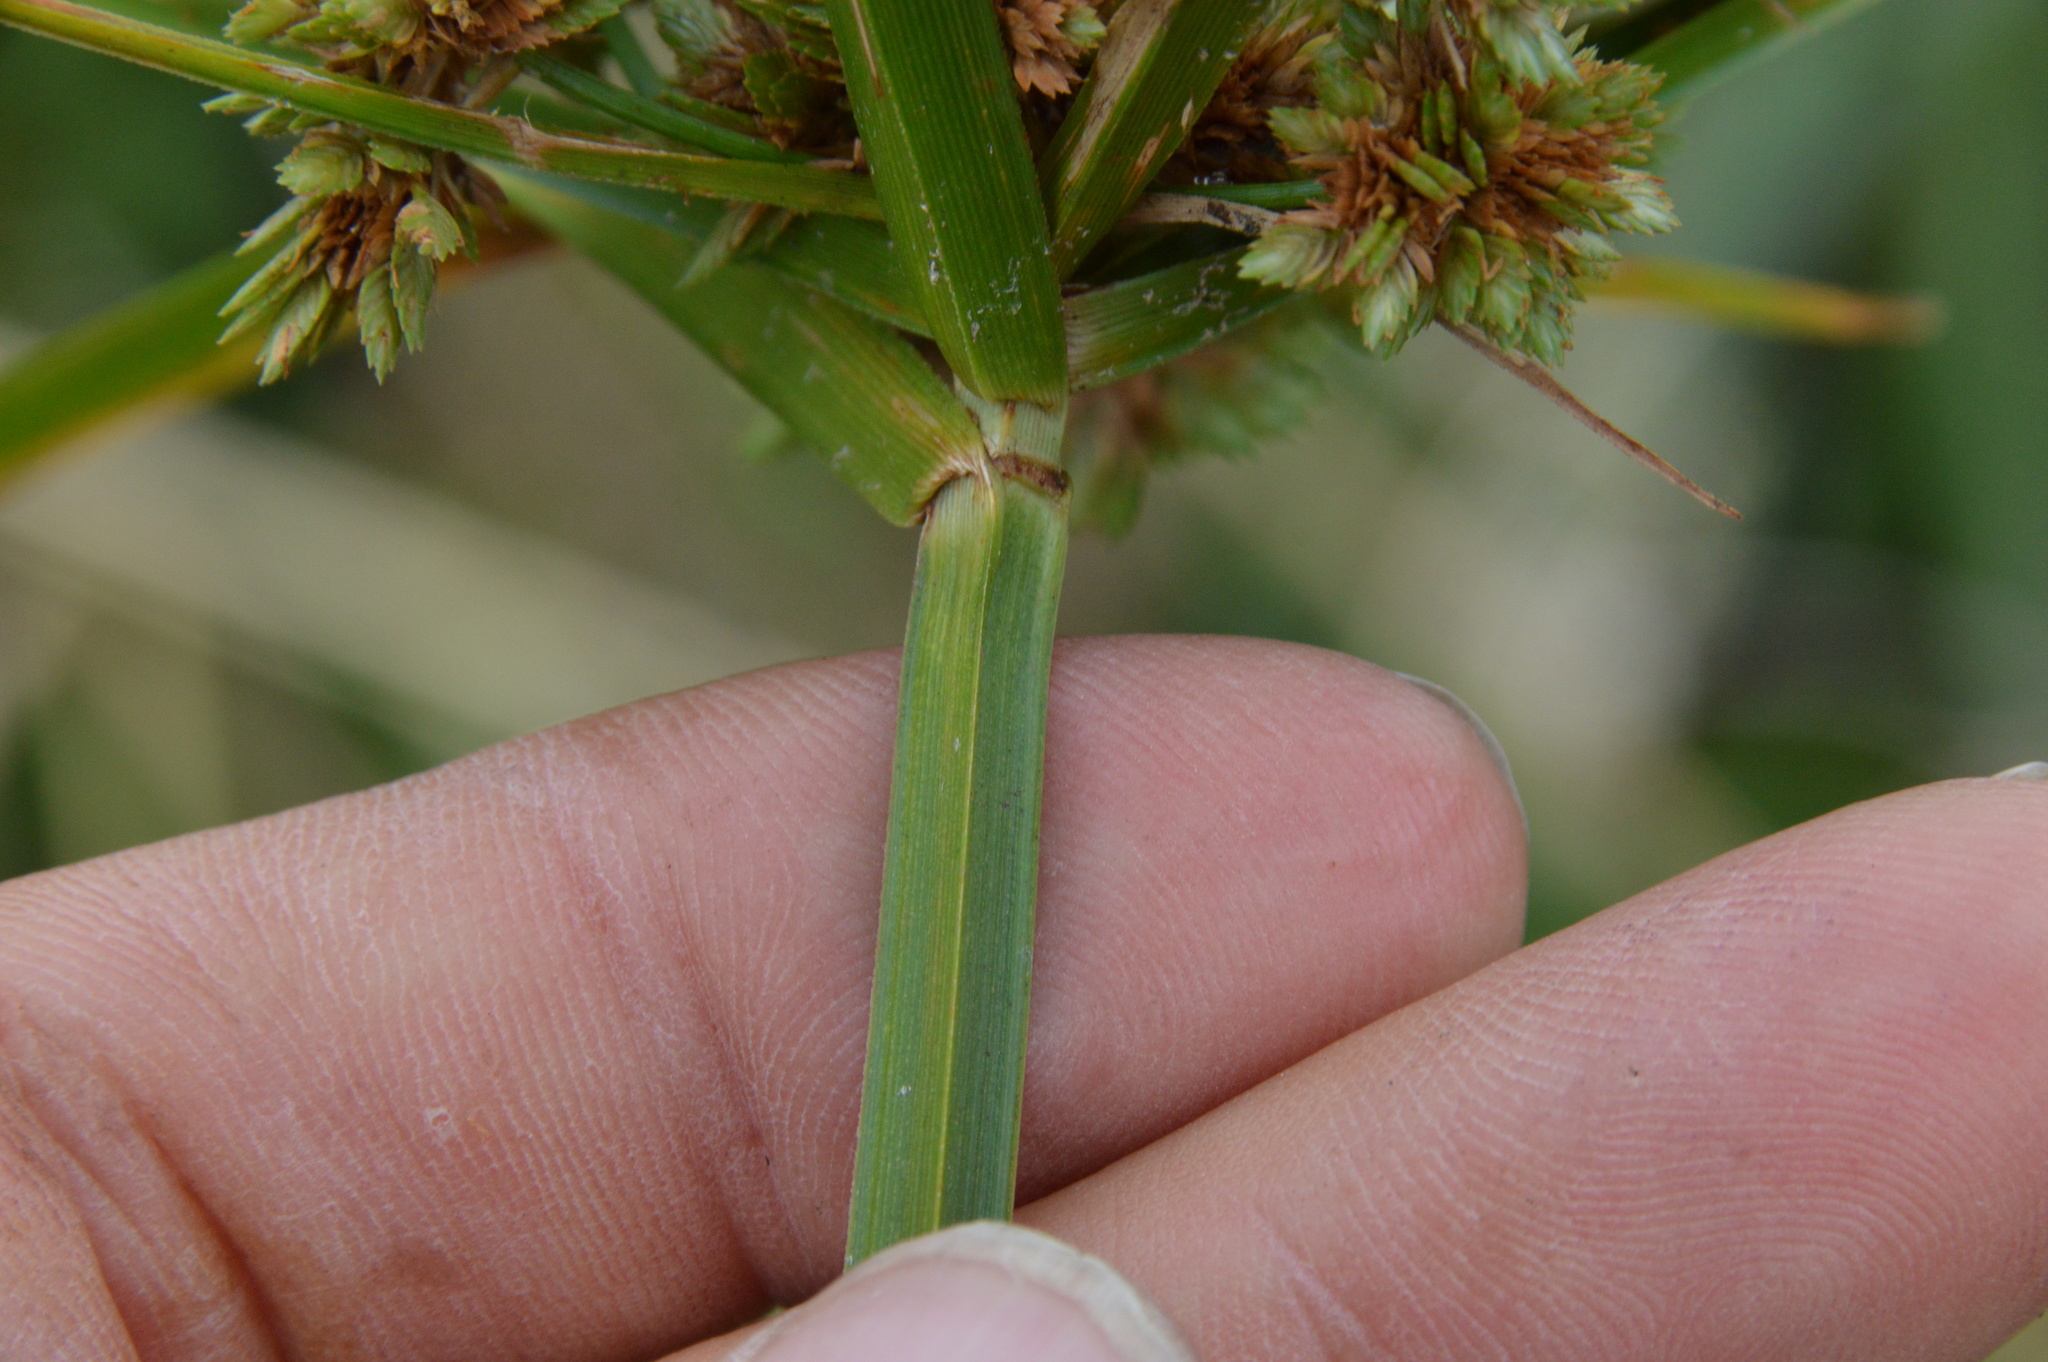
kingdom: Plantae
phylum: Tracheophyta
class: Liliopsida
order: Poales
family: Cyperaceae
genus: Cyperus
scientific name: Cyperus virens
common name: Green flatsedge
